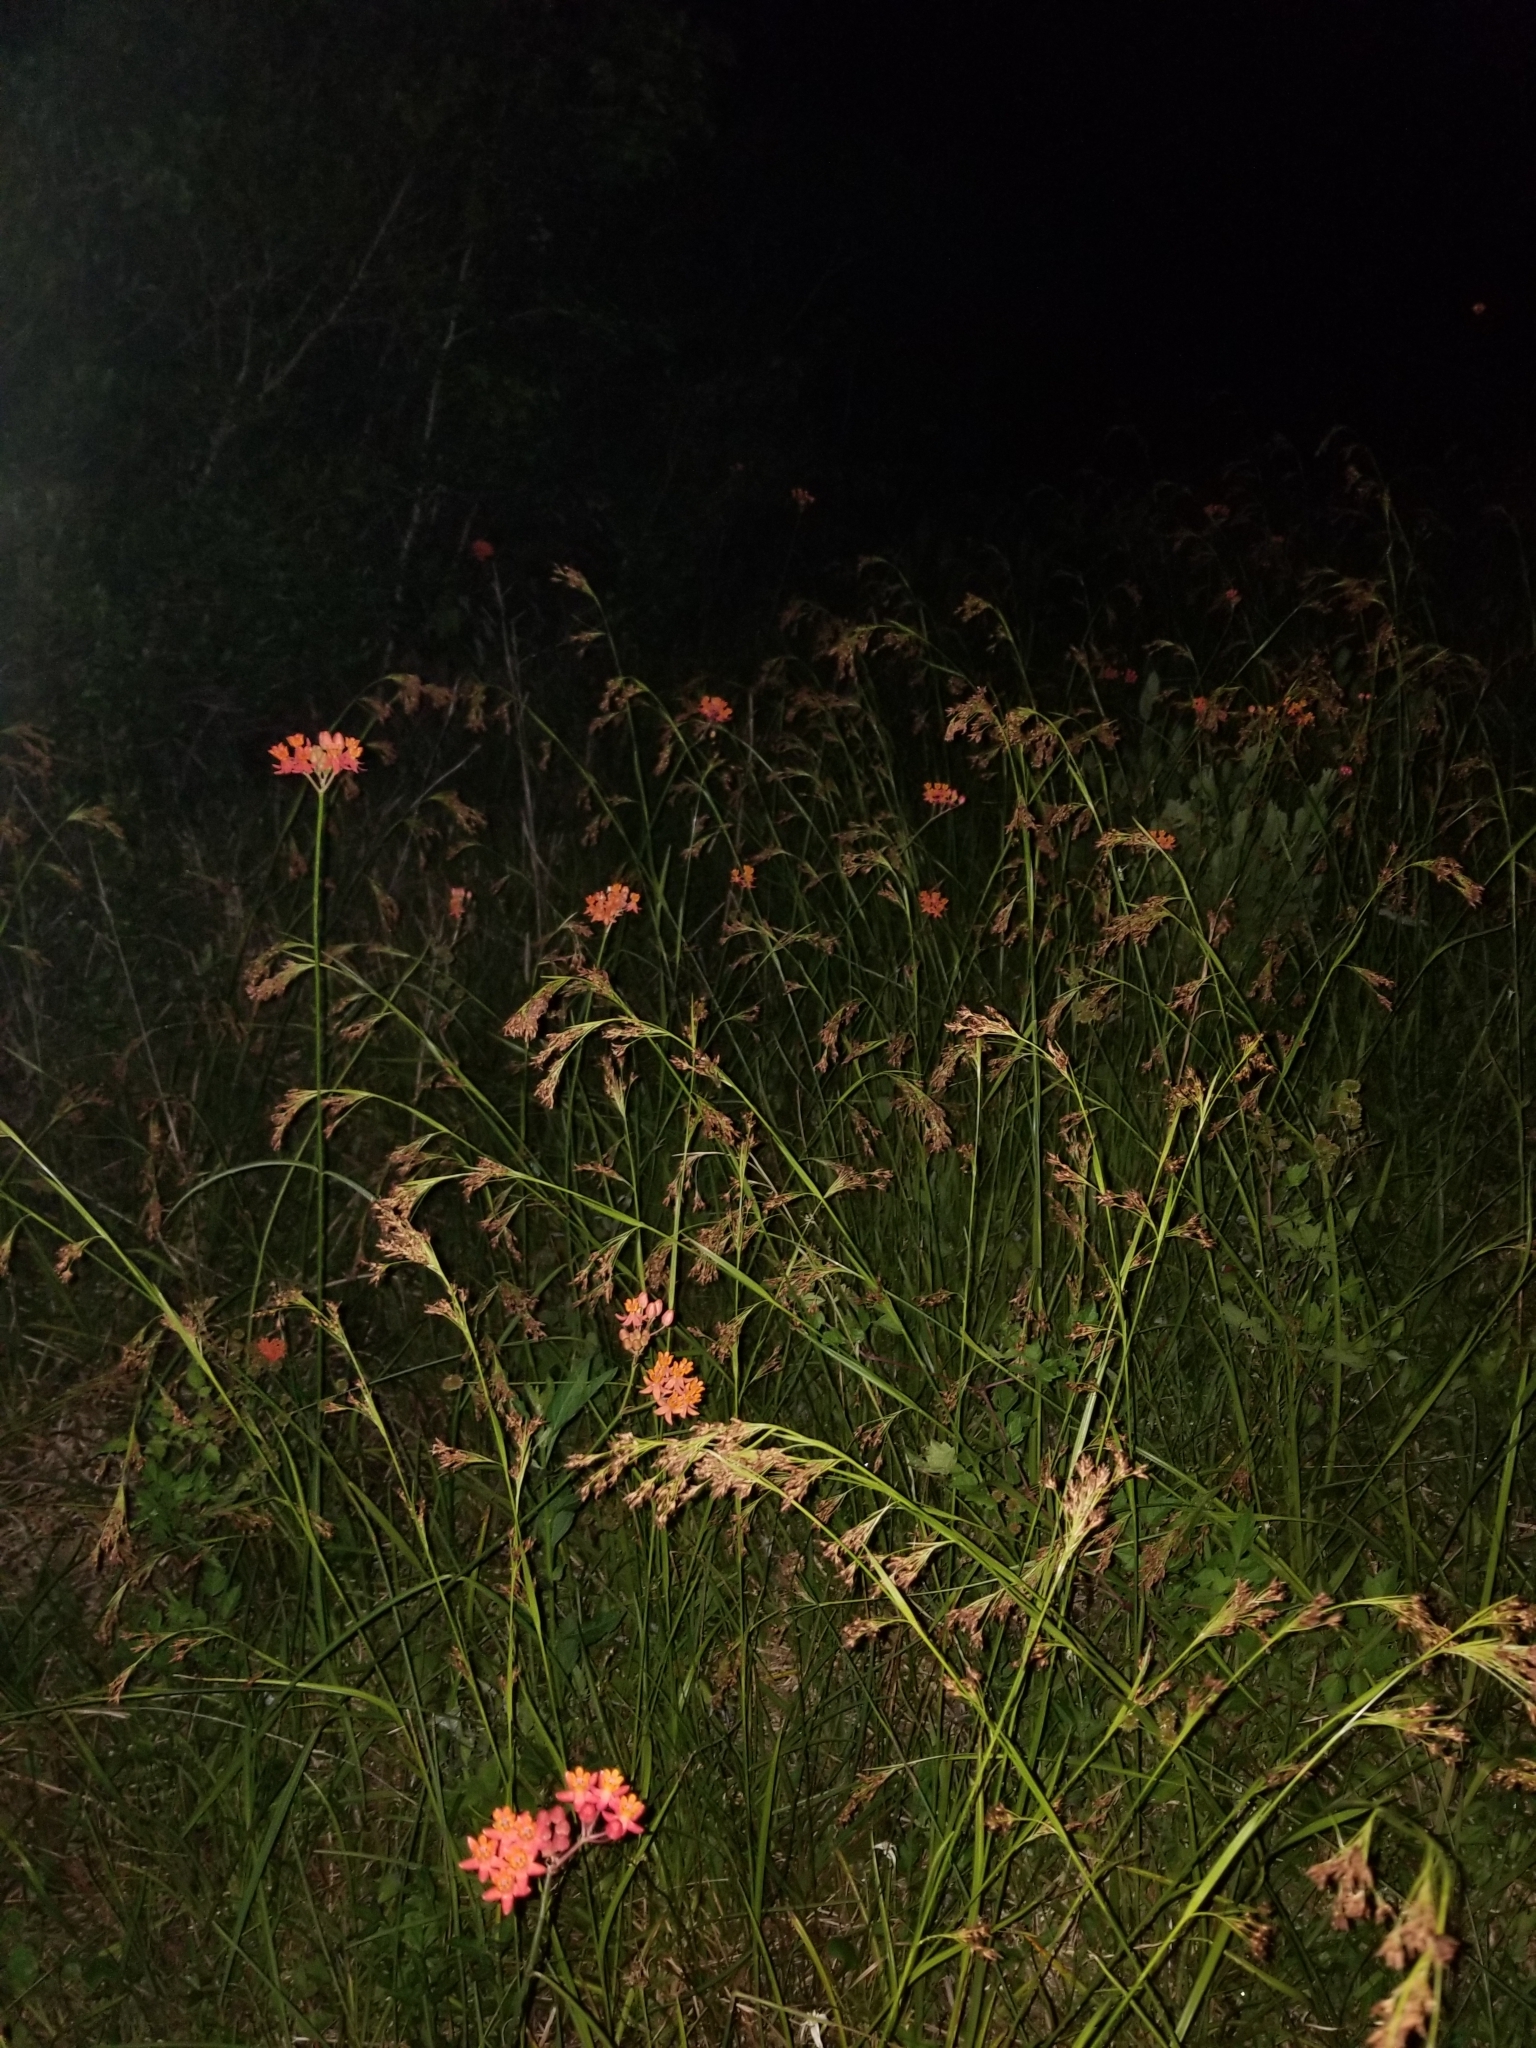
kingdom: Plantae
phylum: Tracheophyta
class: Magnoliopsida
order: Gentianales
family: Apocynaceae
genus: Asclepias
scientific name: Asclepias lanceolata
